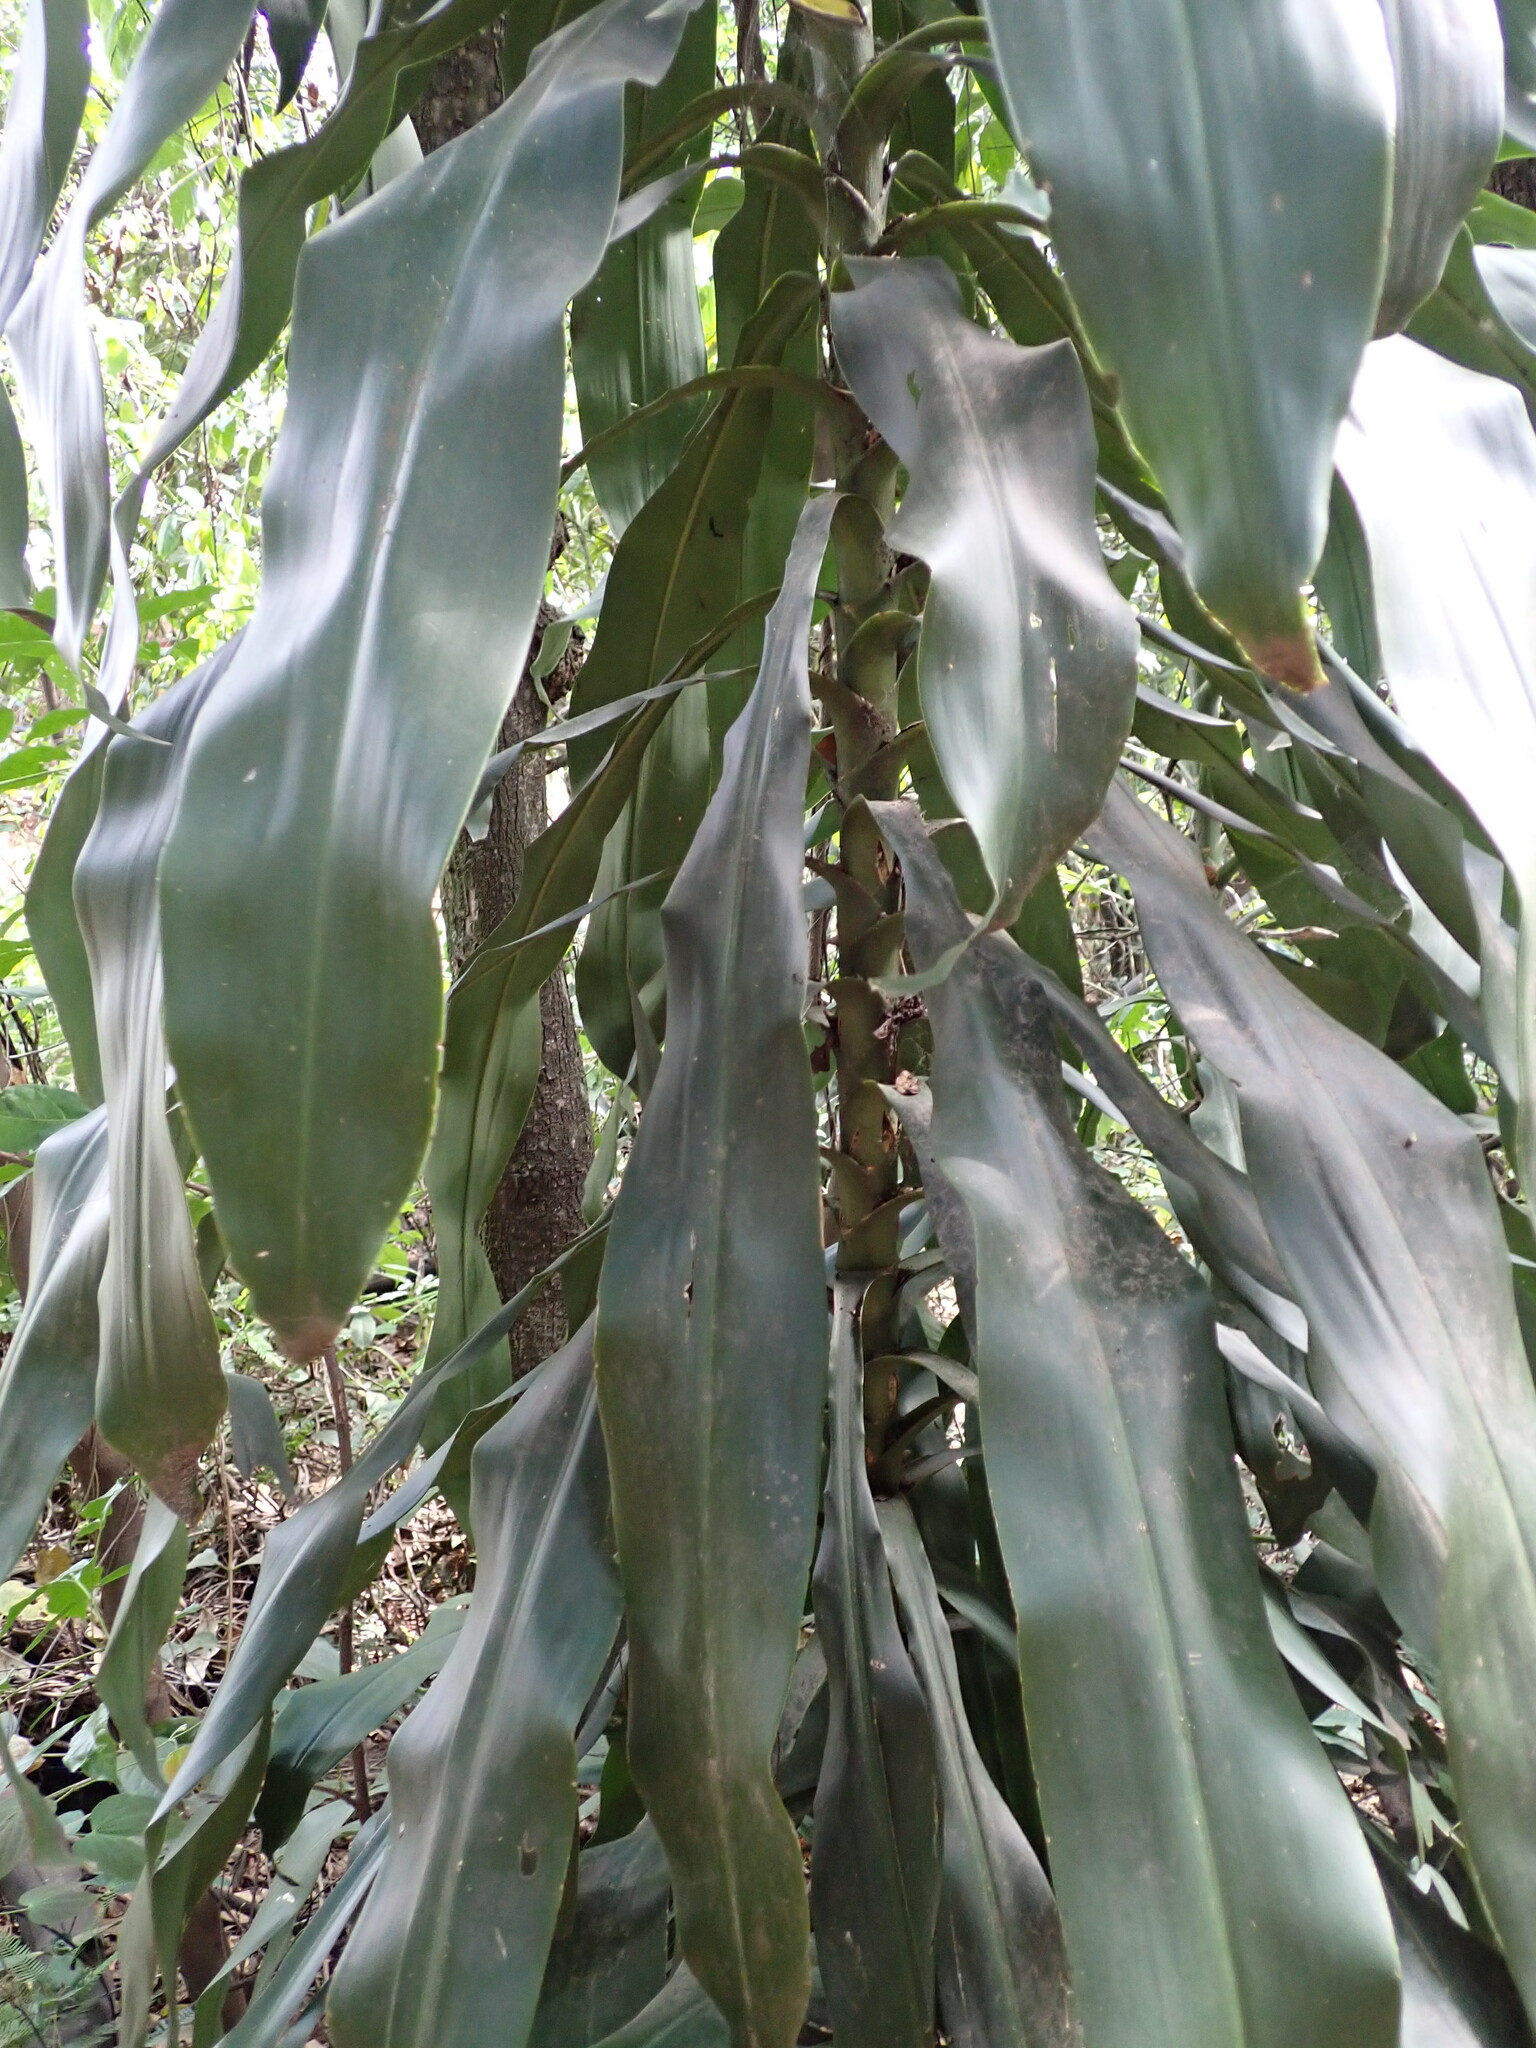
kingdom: Plantae
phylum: Tracheophyta
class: Liliopsida
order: Asparagales
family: Asparagaceae
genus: Dracaena
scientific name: Dracaena fragrans
